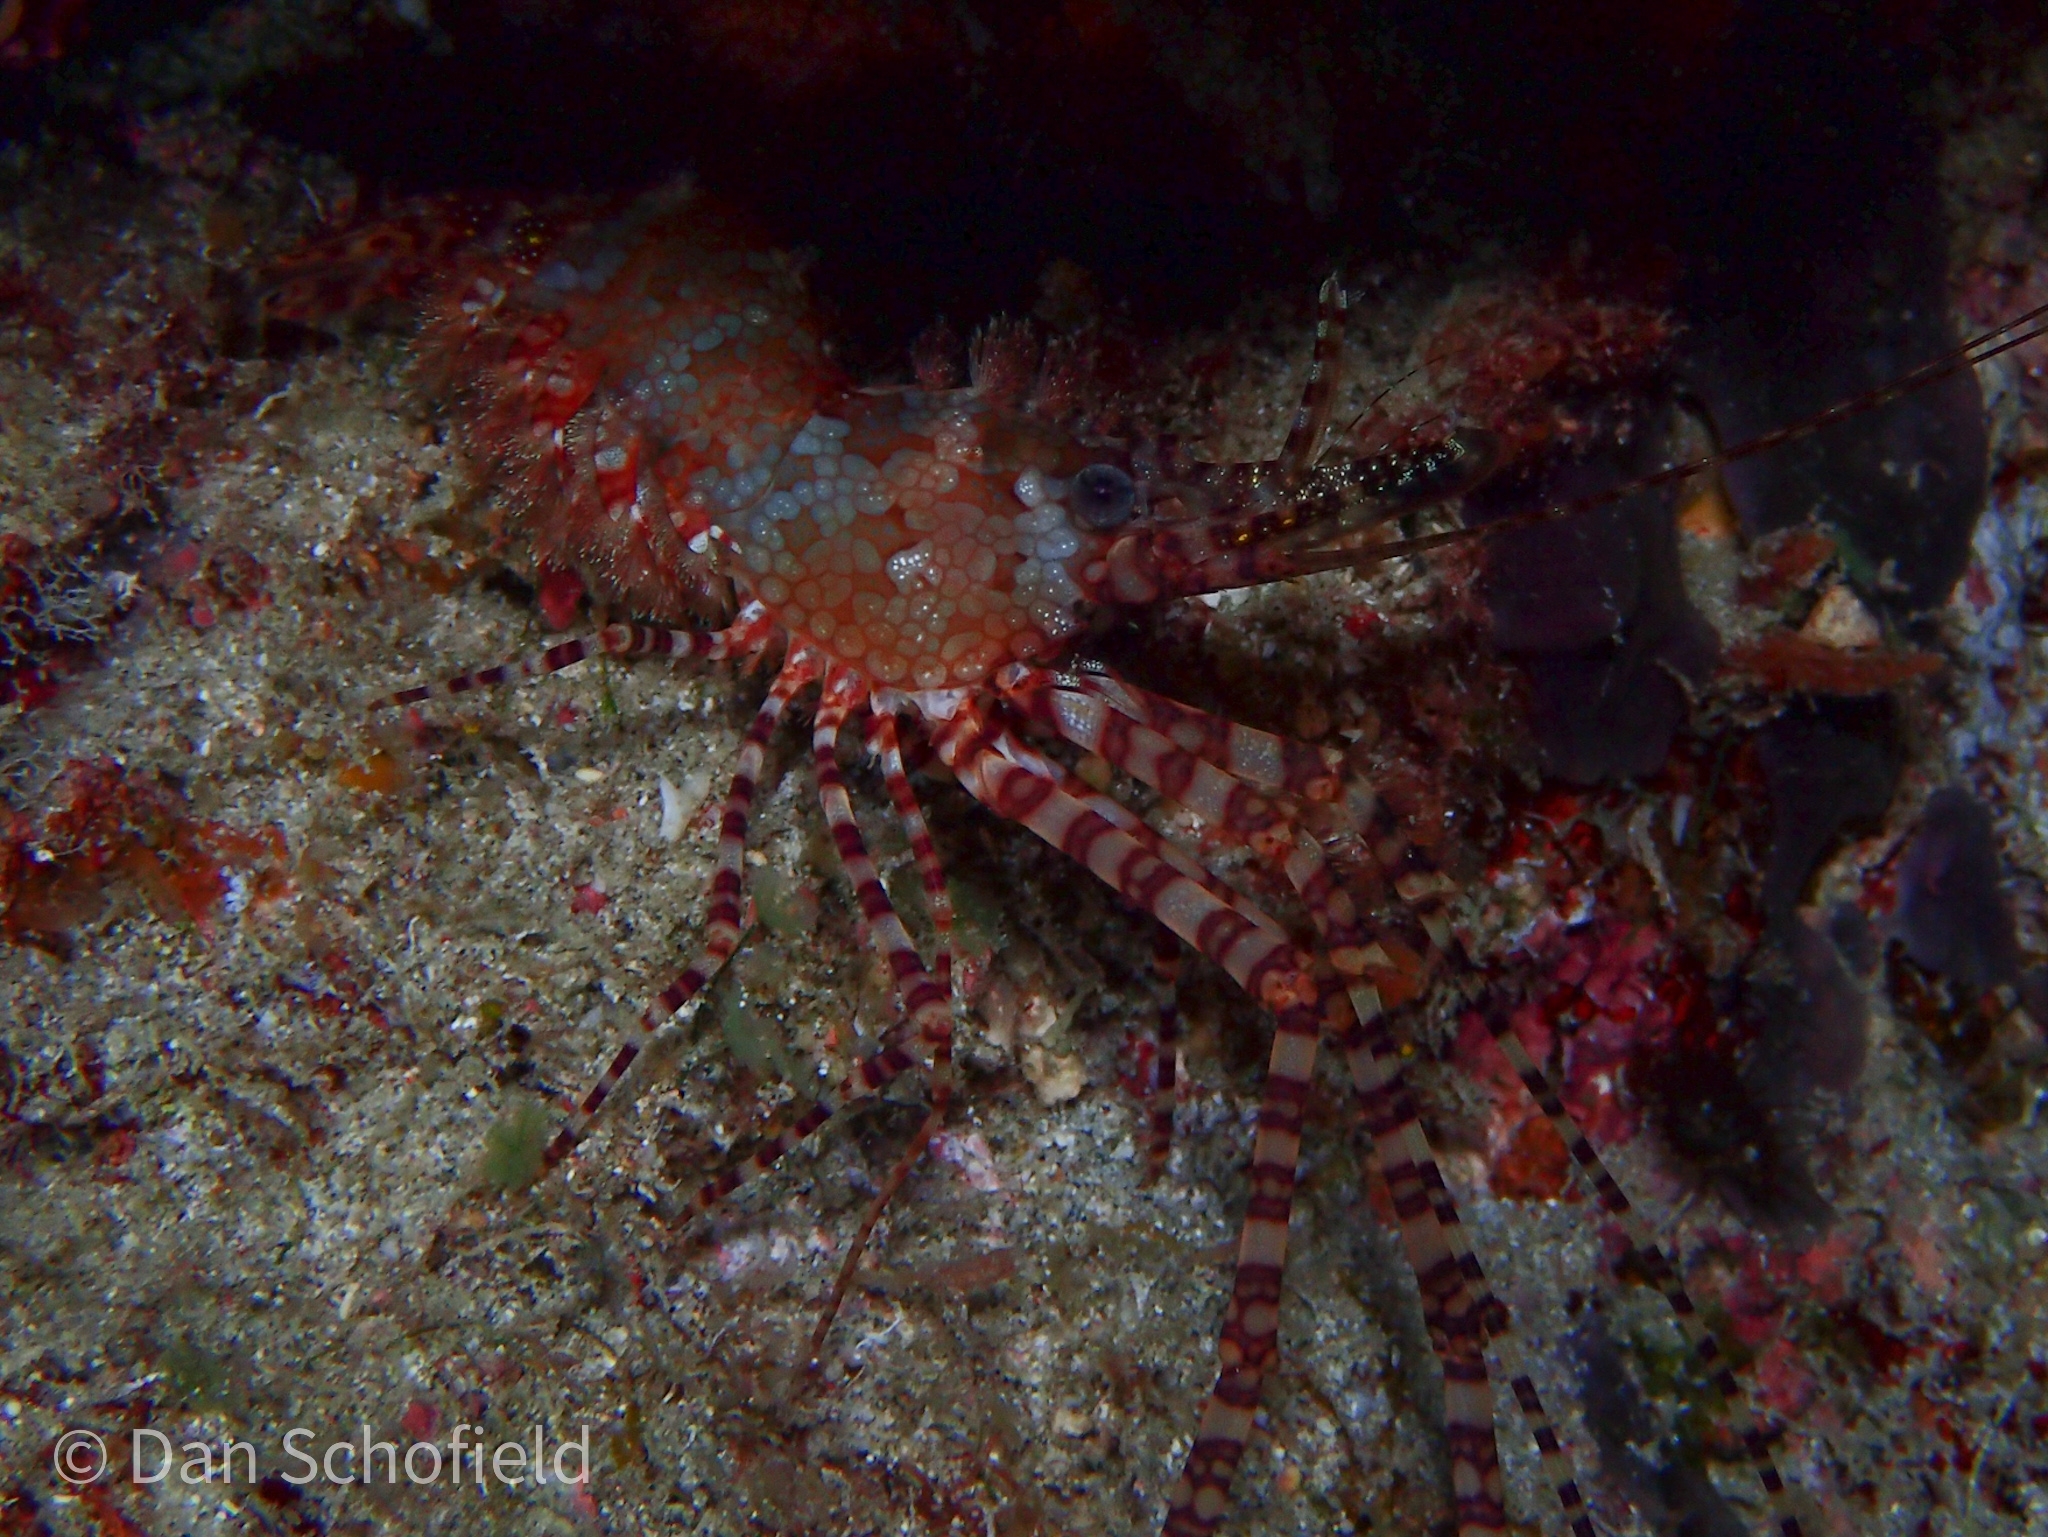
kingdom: Animalia
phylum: Arthropoda
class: Malacostraca
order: Decapoda
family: Hippolytidae
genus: Saron
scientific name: Saron marmoratus
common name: Common marble shrimp
